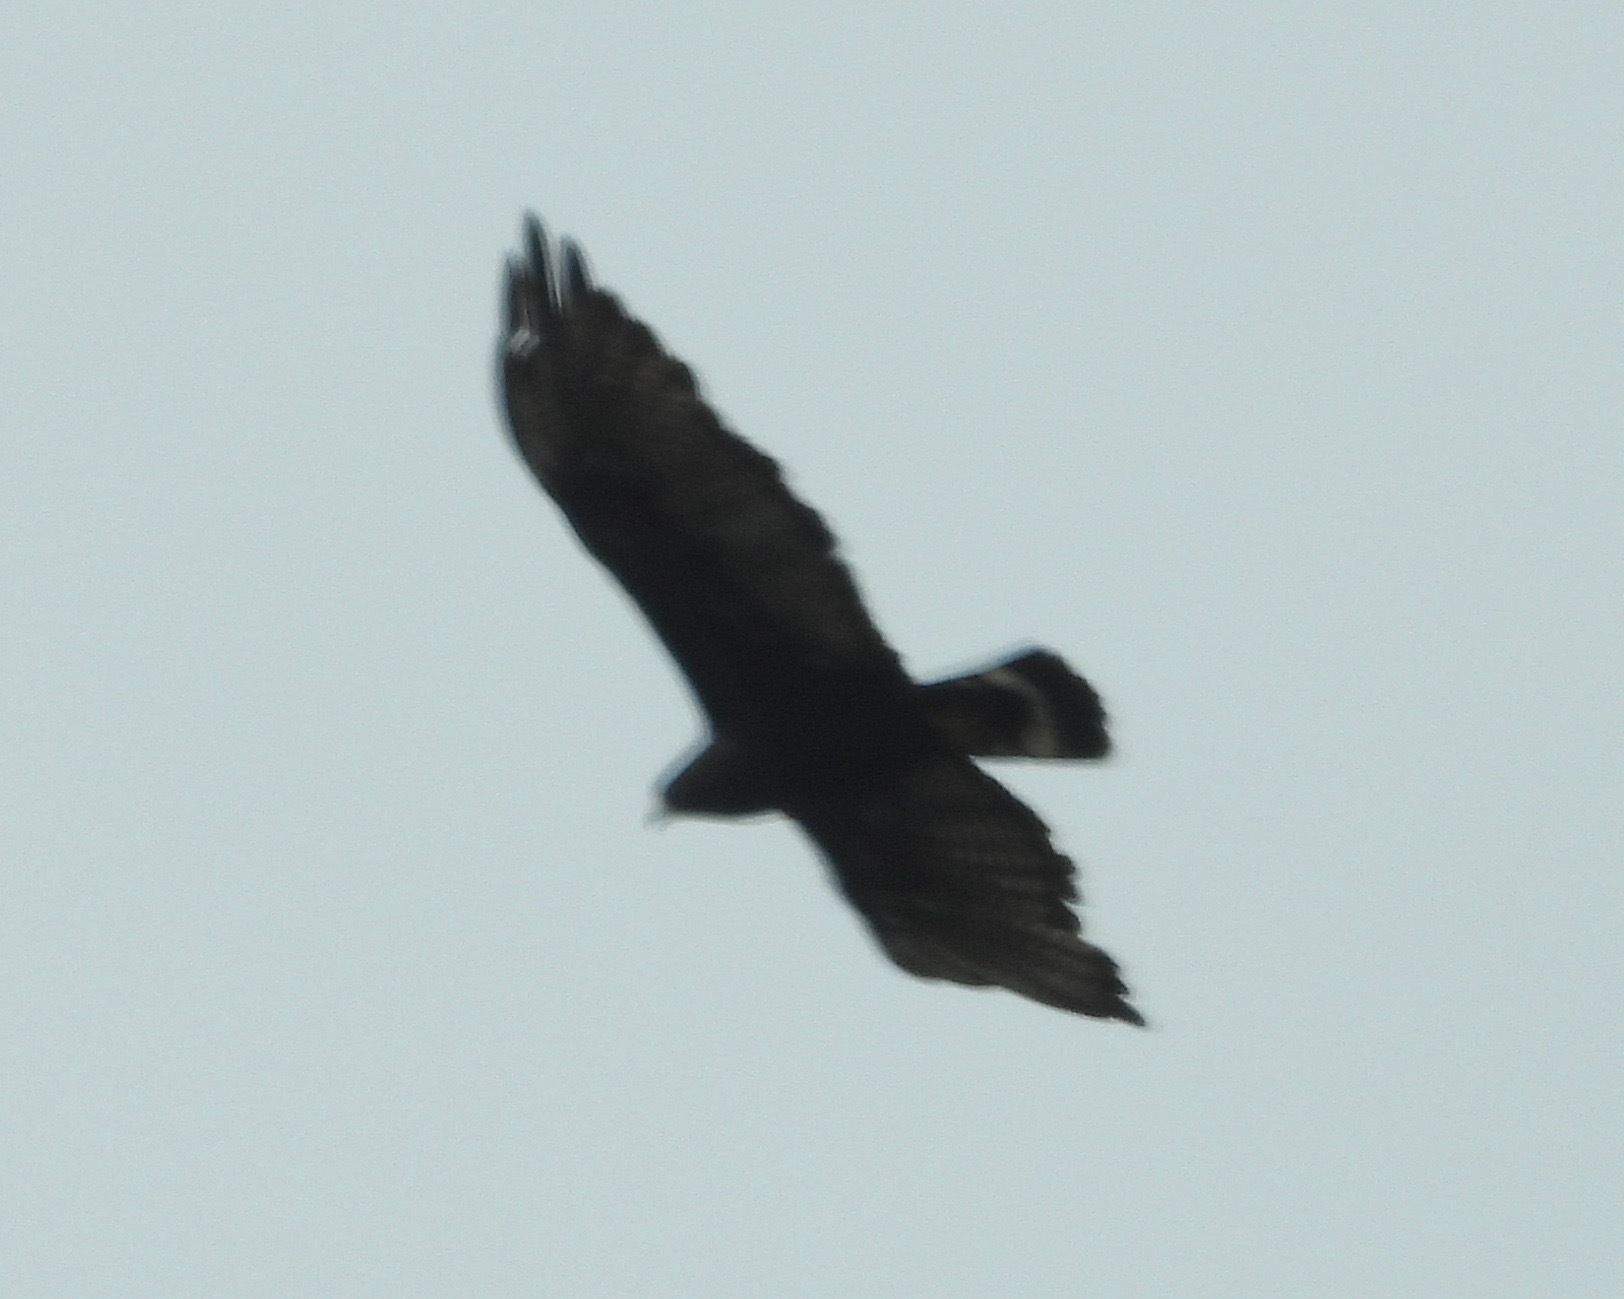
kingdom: Animalia
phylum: Chordata
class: Aves
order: Accipitriformes
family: Accipitridae
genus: Buteo
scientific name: Buteo albonotatus
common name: Zone-tailed hawk
